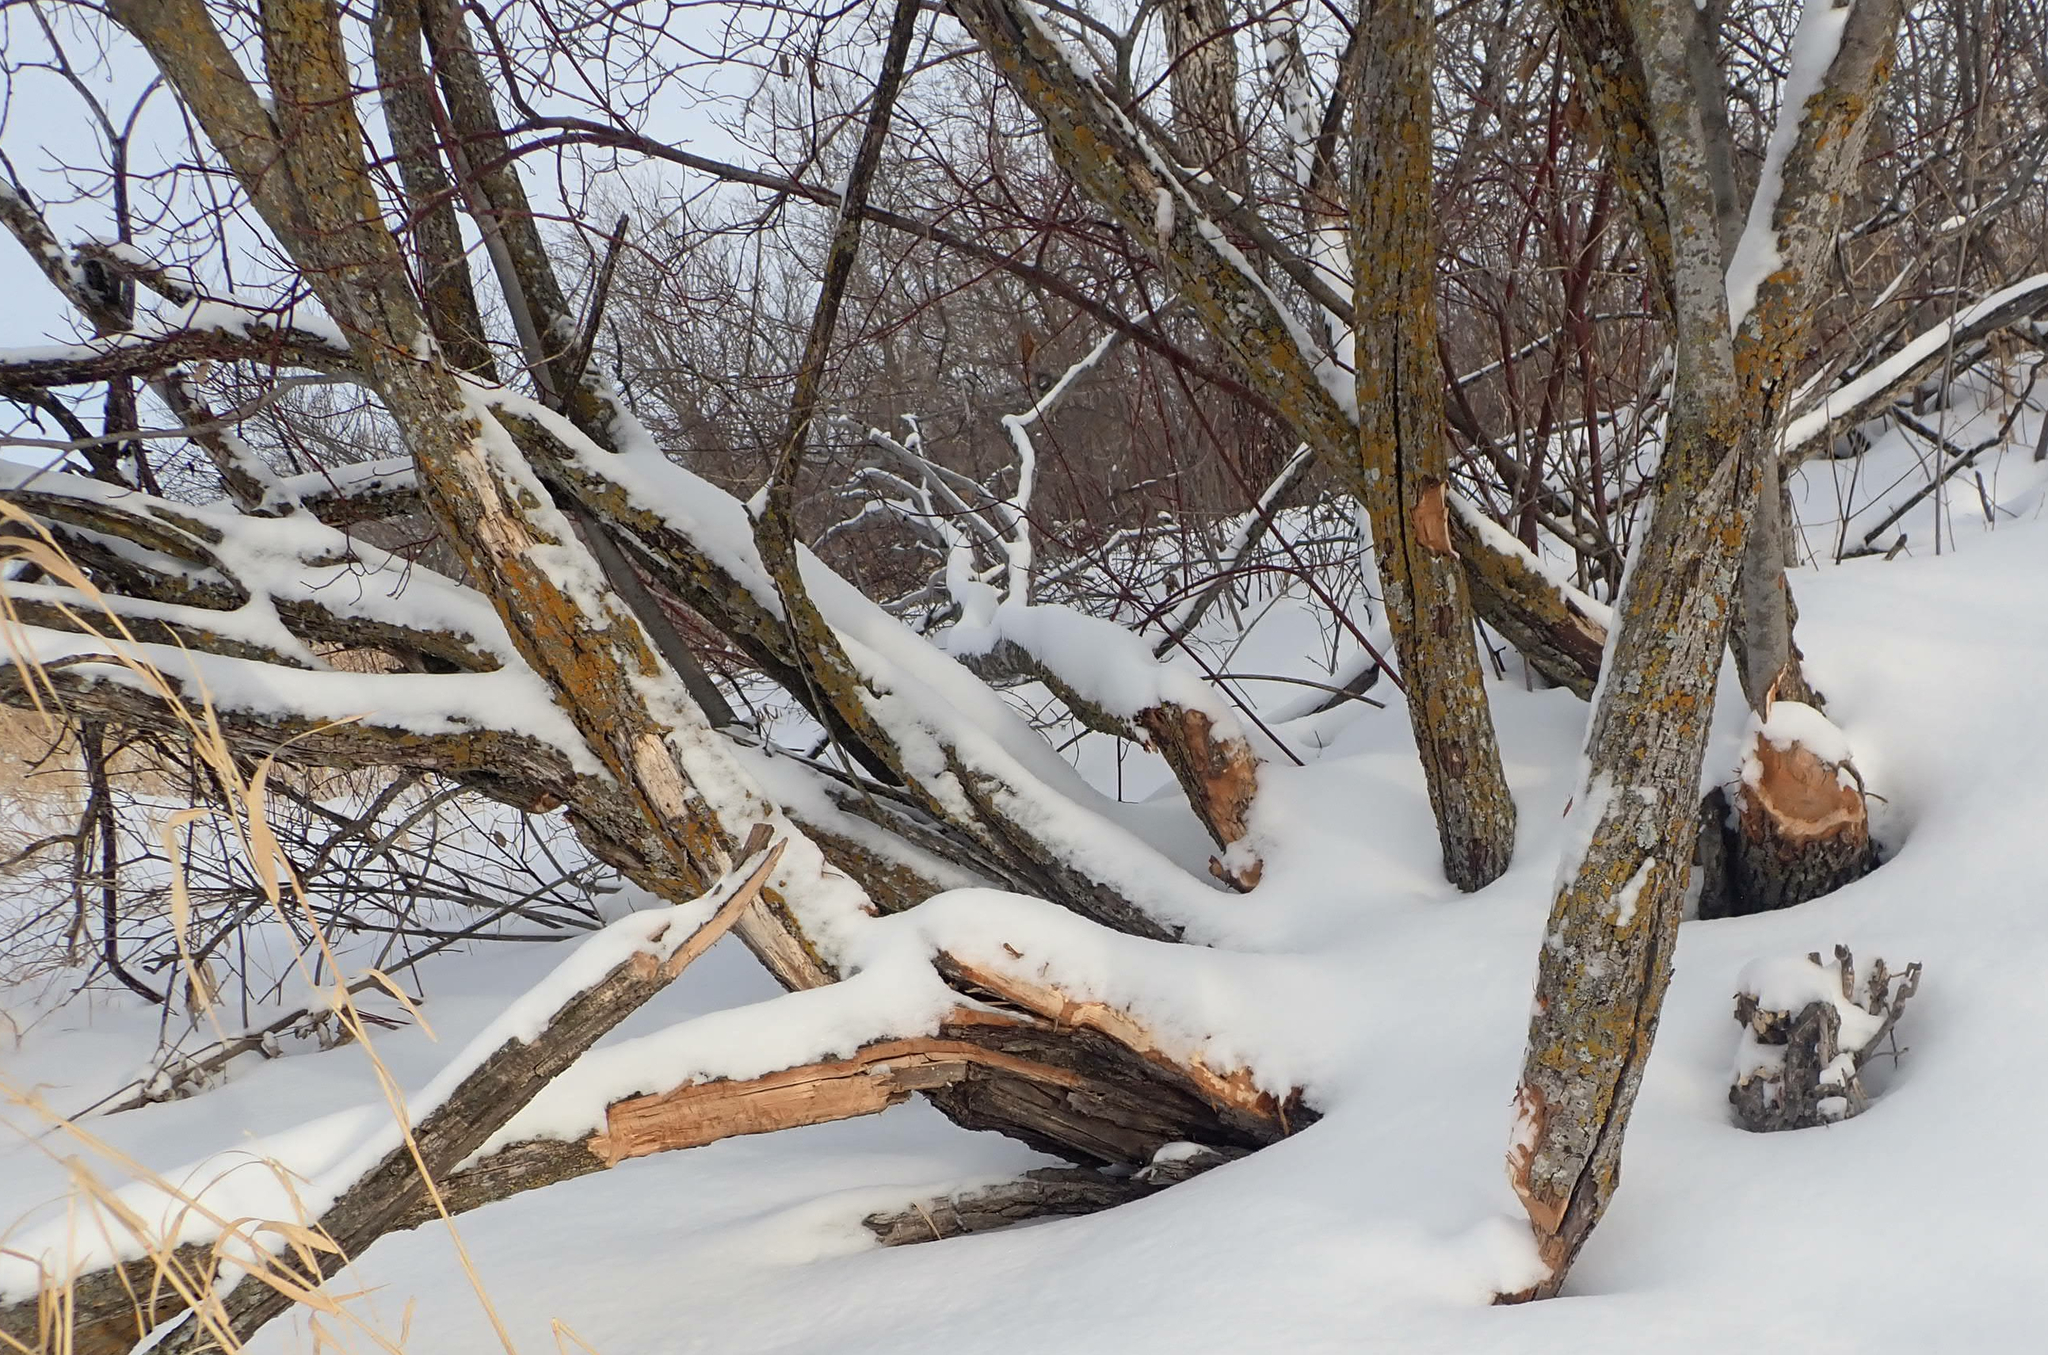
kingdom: Animalia
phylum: Chordata
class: Mammalia
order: Rodentia
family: Castoridae
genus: Castor
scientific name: Castor canadensis
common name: American beaver
